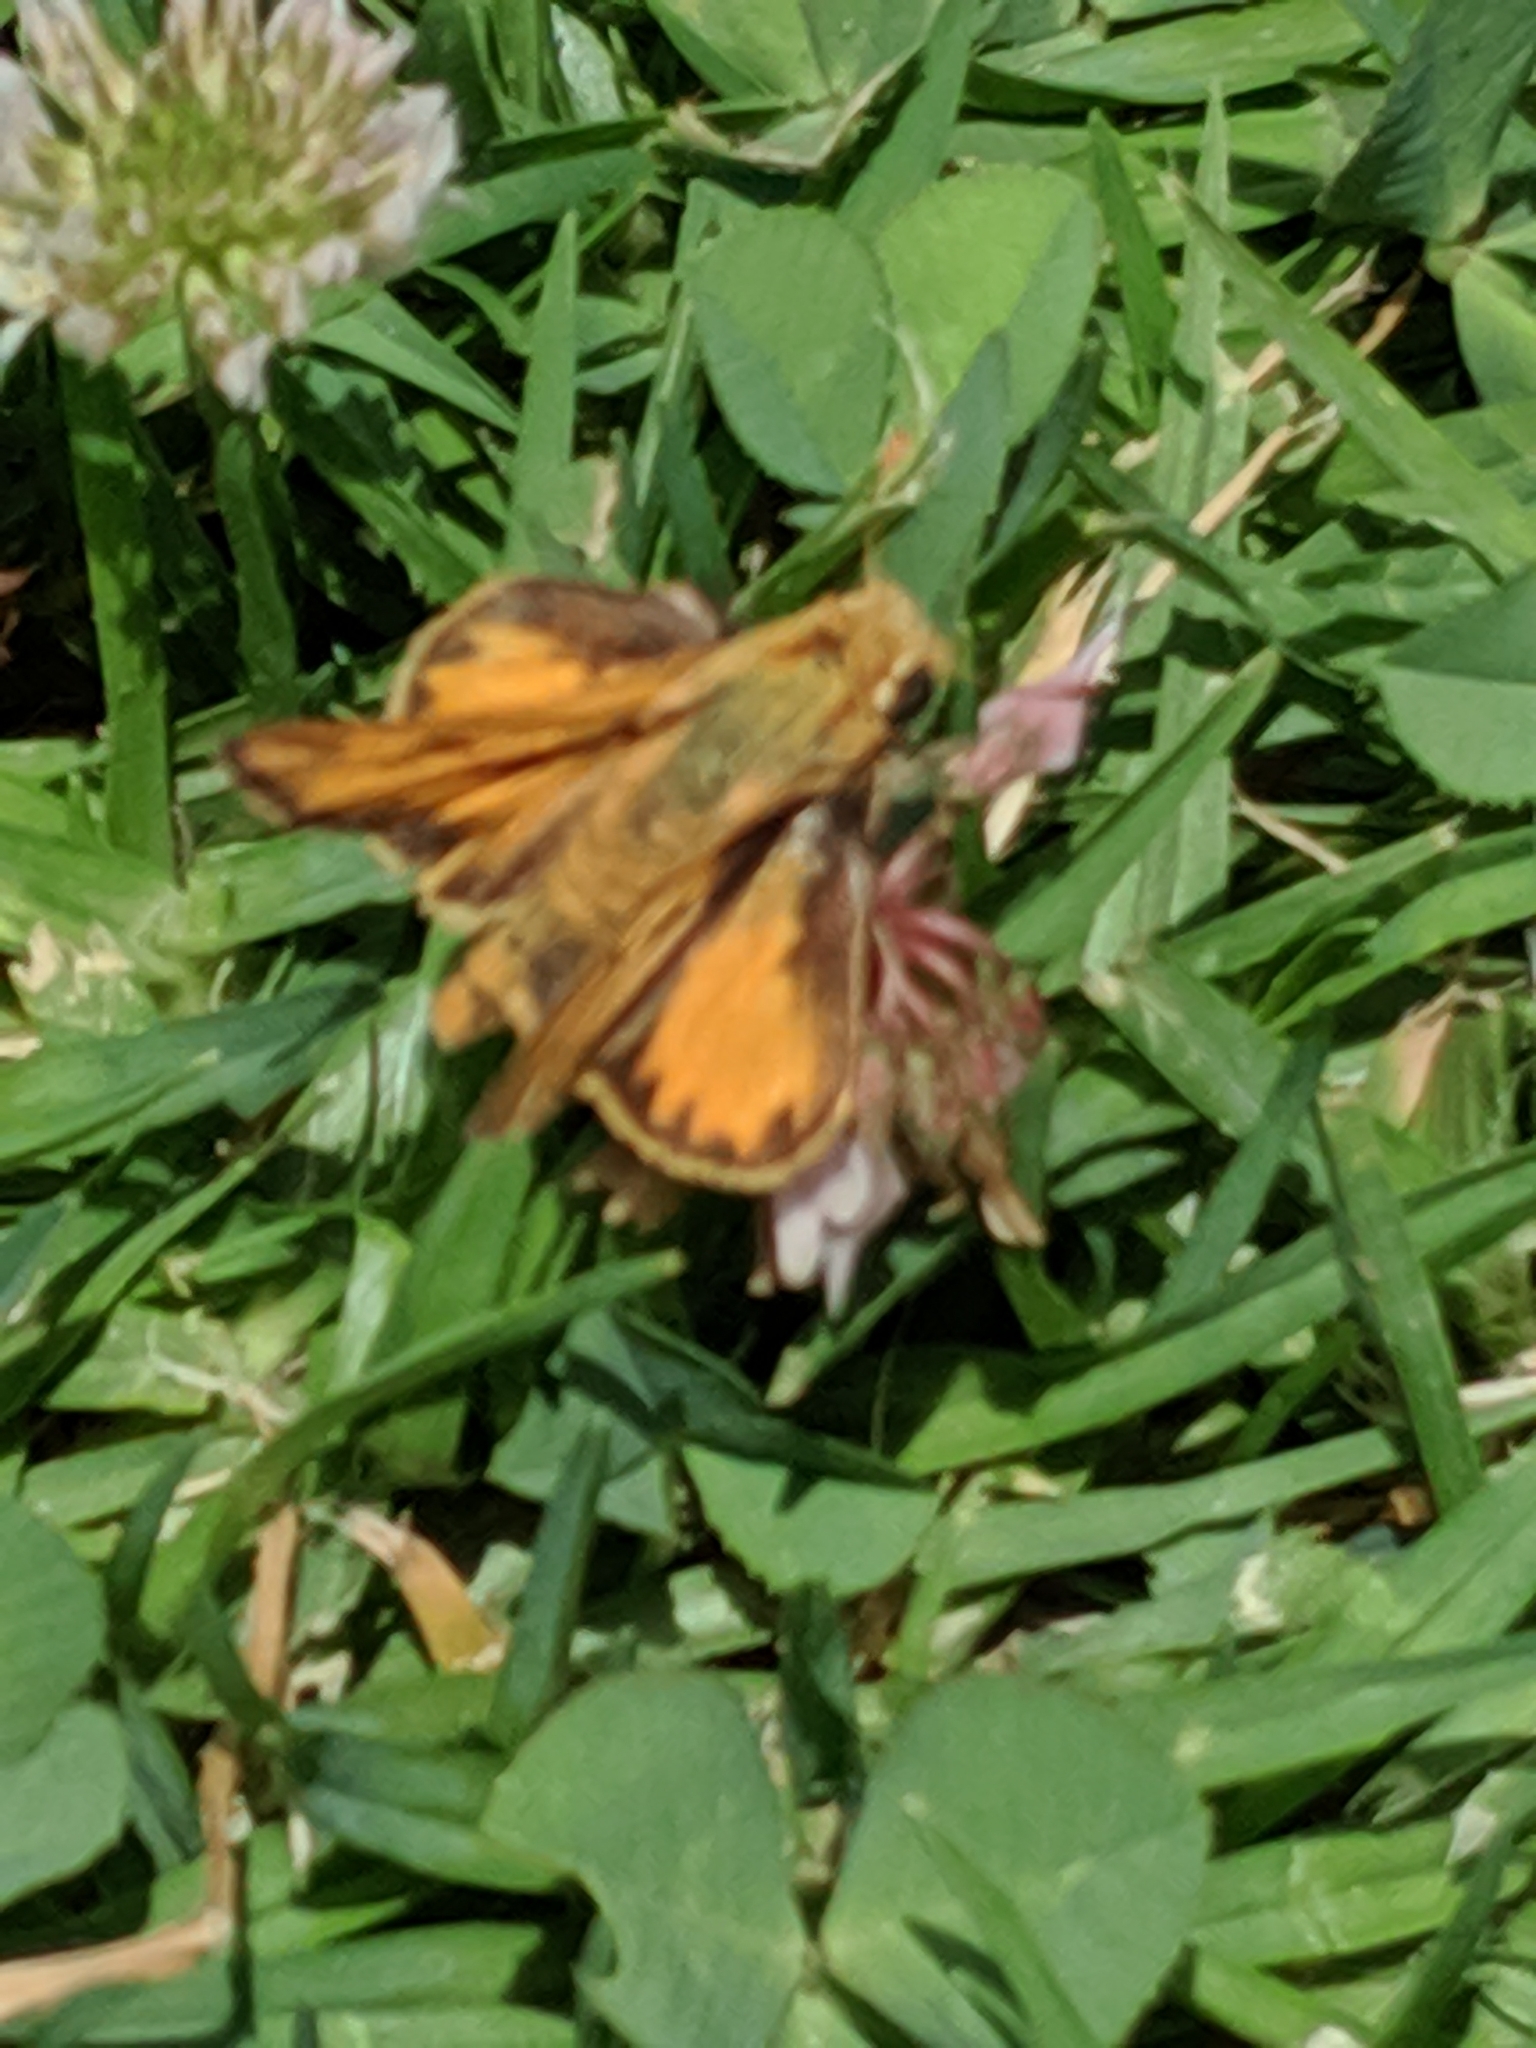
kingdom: Animalia
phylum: Arthropoda
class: Insecta
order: Lepidoptera
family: Hesperiidae
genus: Hylephila
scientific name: Hylephila phyleus
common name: Fiery skipper
